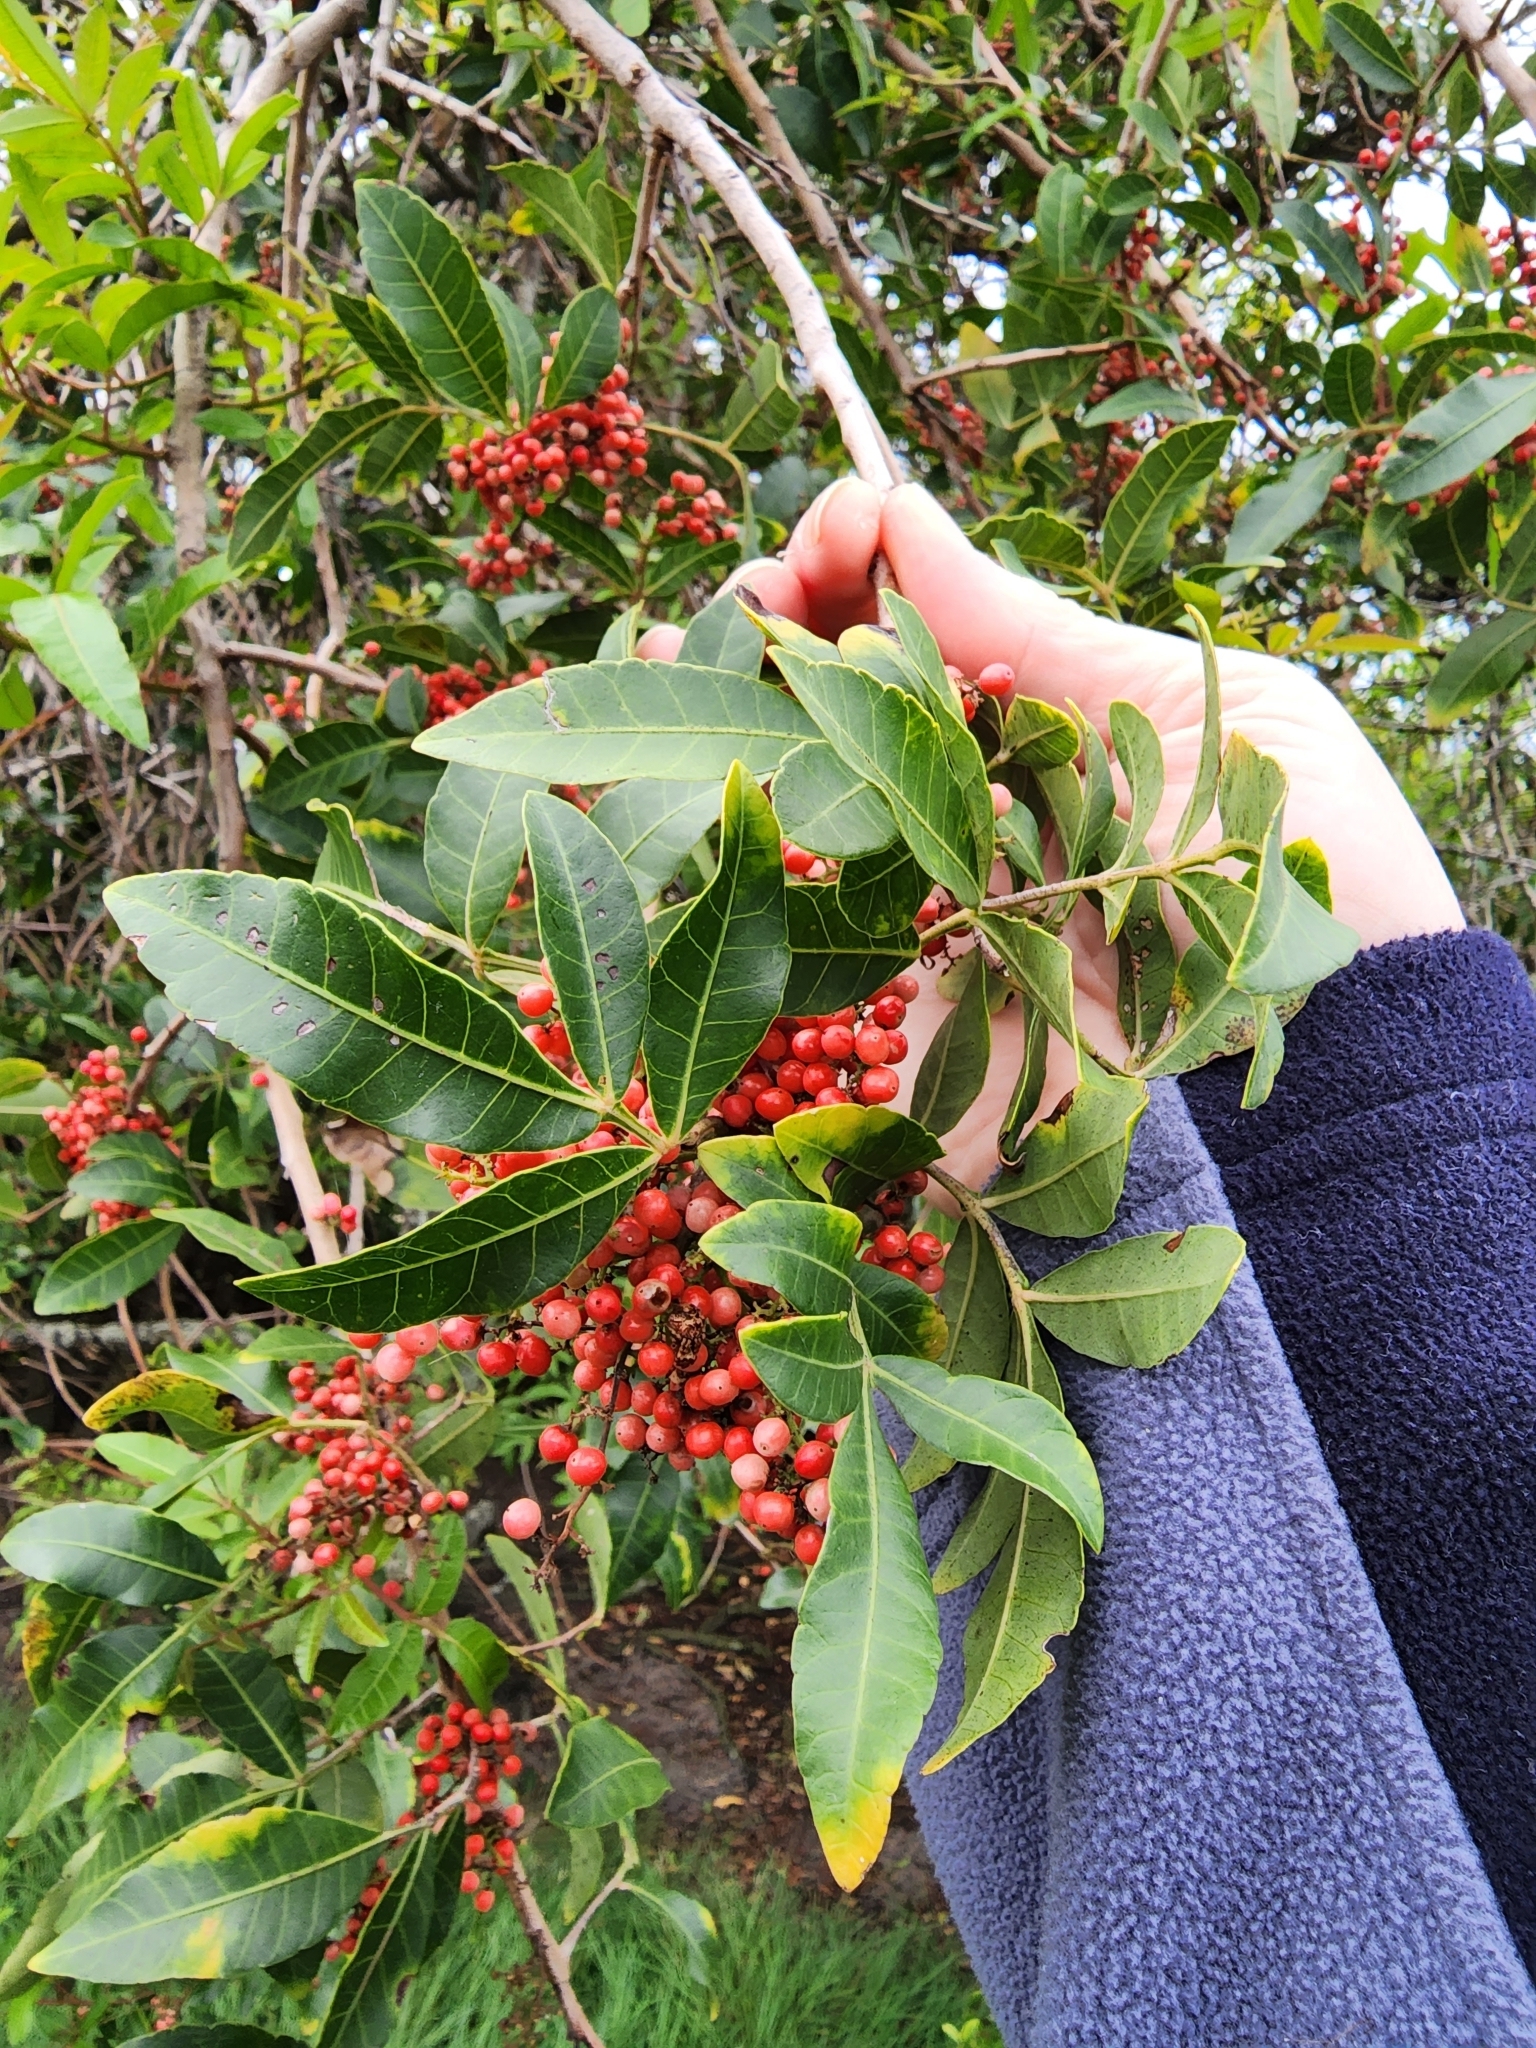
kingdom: Plantae
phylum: Tracheophyta
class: Magnoliopsida
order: Sapindales
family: Anacardiaceae
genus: Schinus
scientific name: Schinus terebinthifolia
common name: Brazilian peppertree
